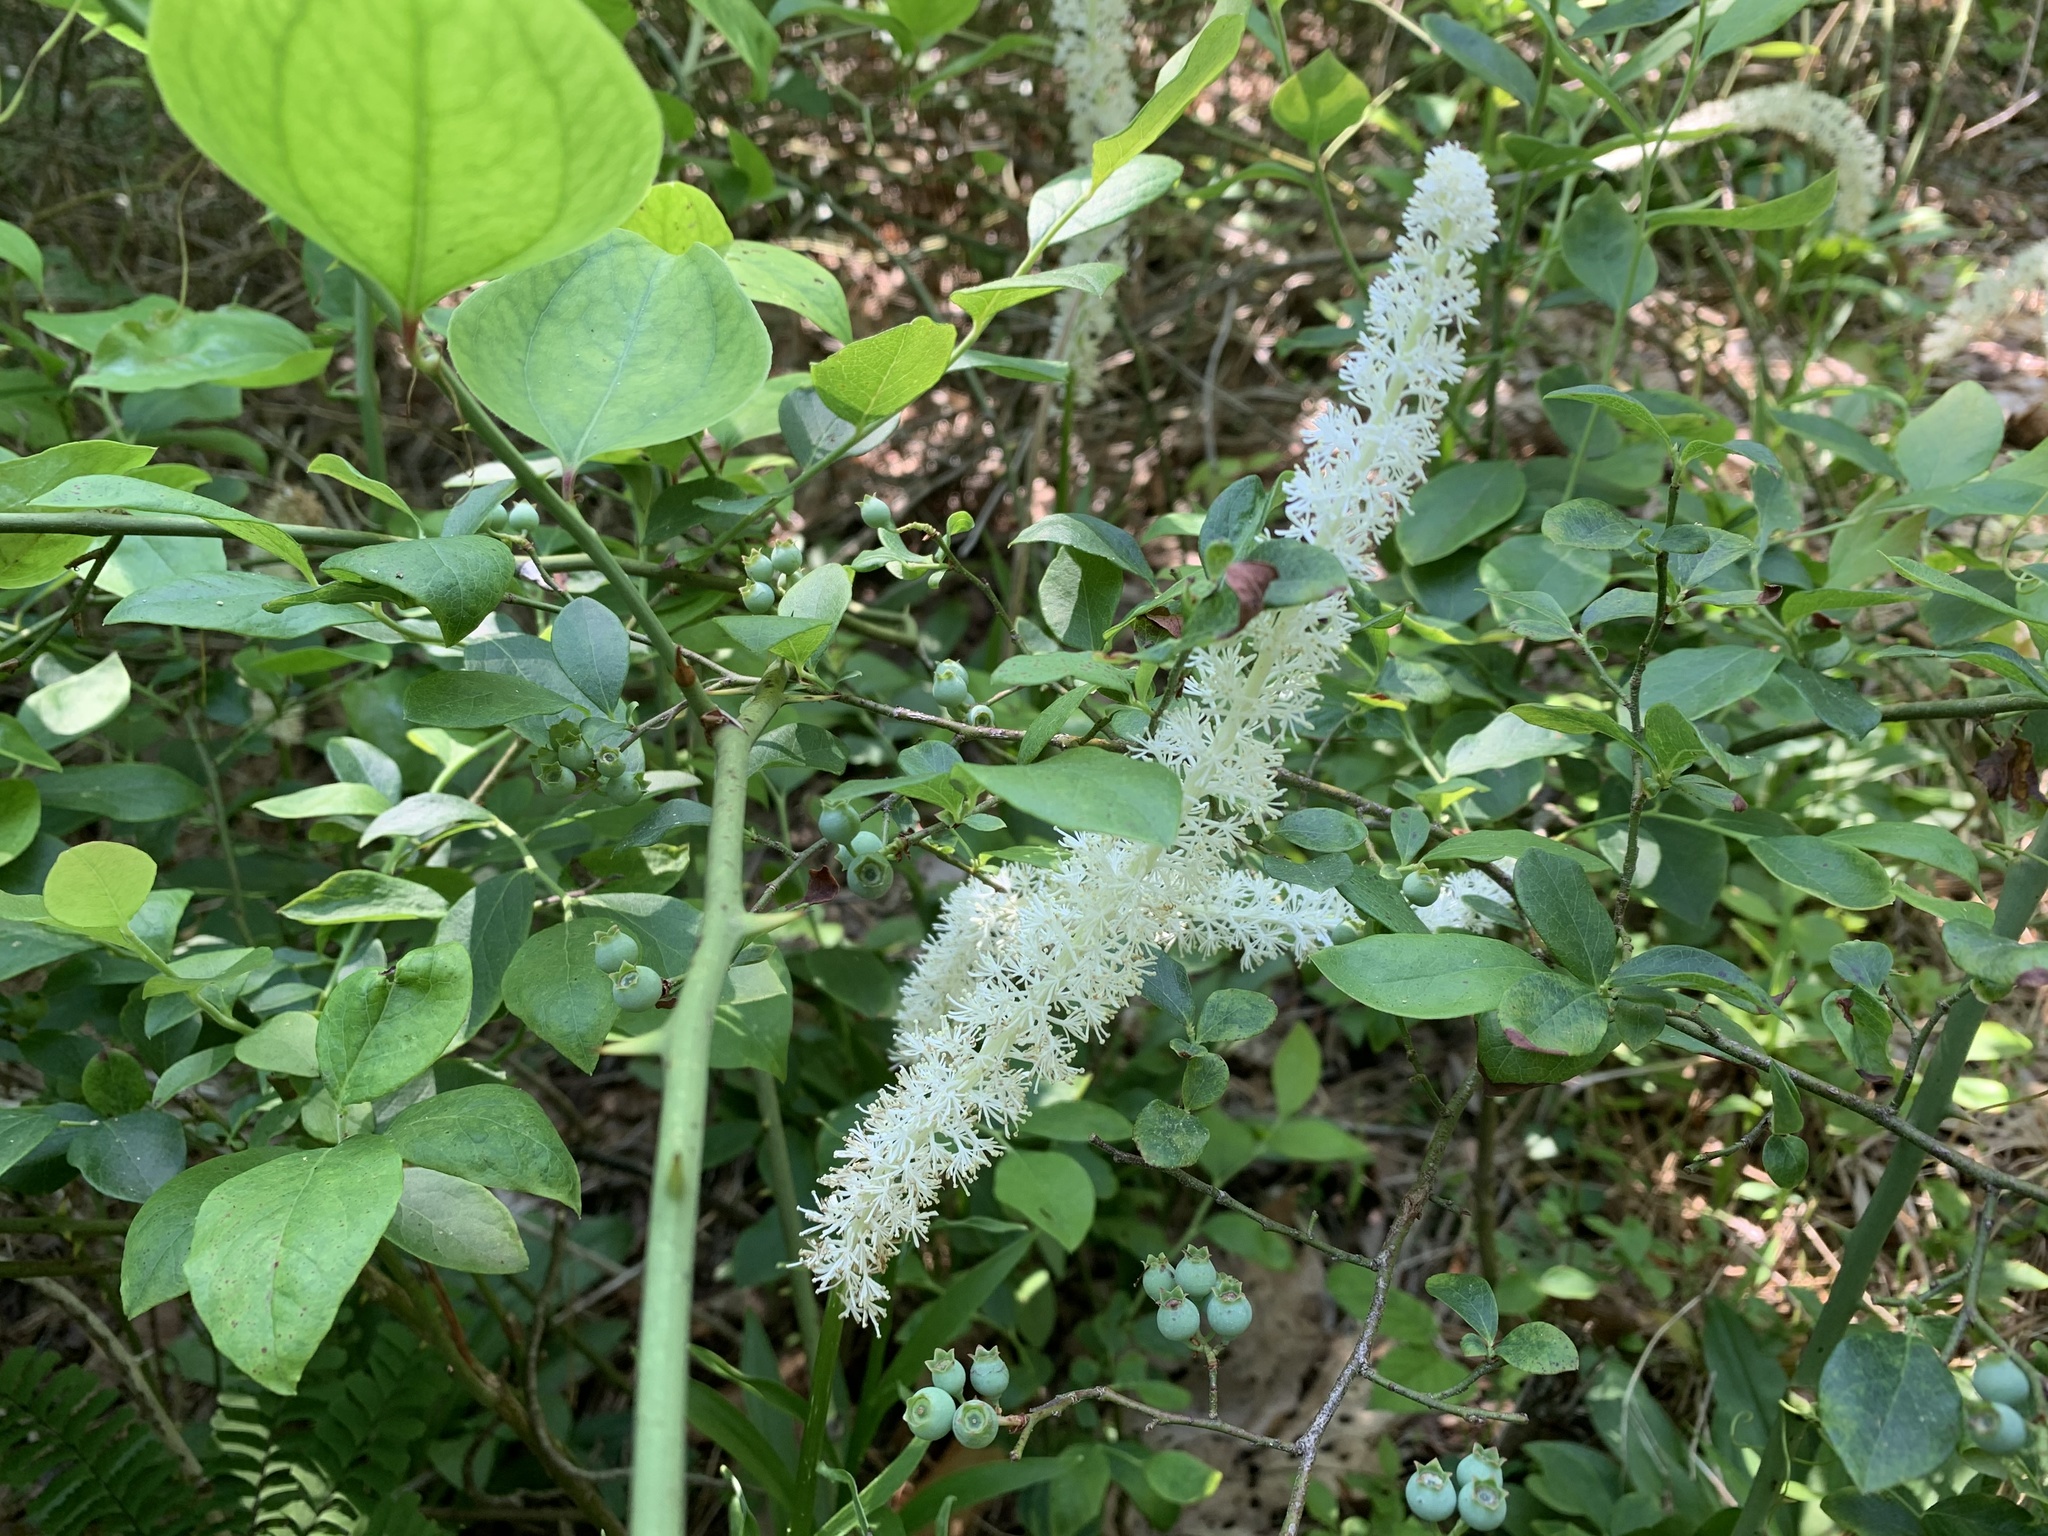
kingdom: Plantae
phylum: Tracheophyta
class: Liliopsida
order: Liliales
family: Melanthiaceae
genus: Chamaelirium
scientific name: Chamaelirium luteum
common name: Fairy-wand
